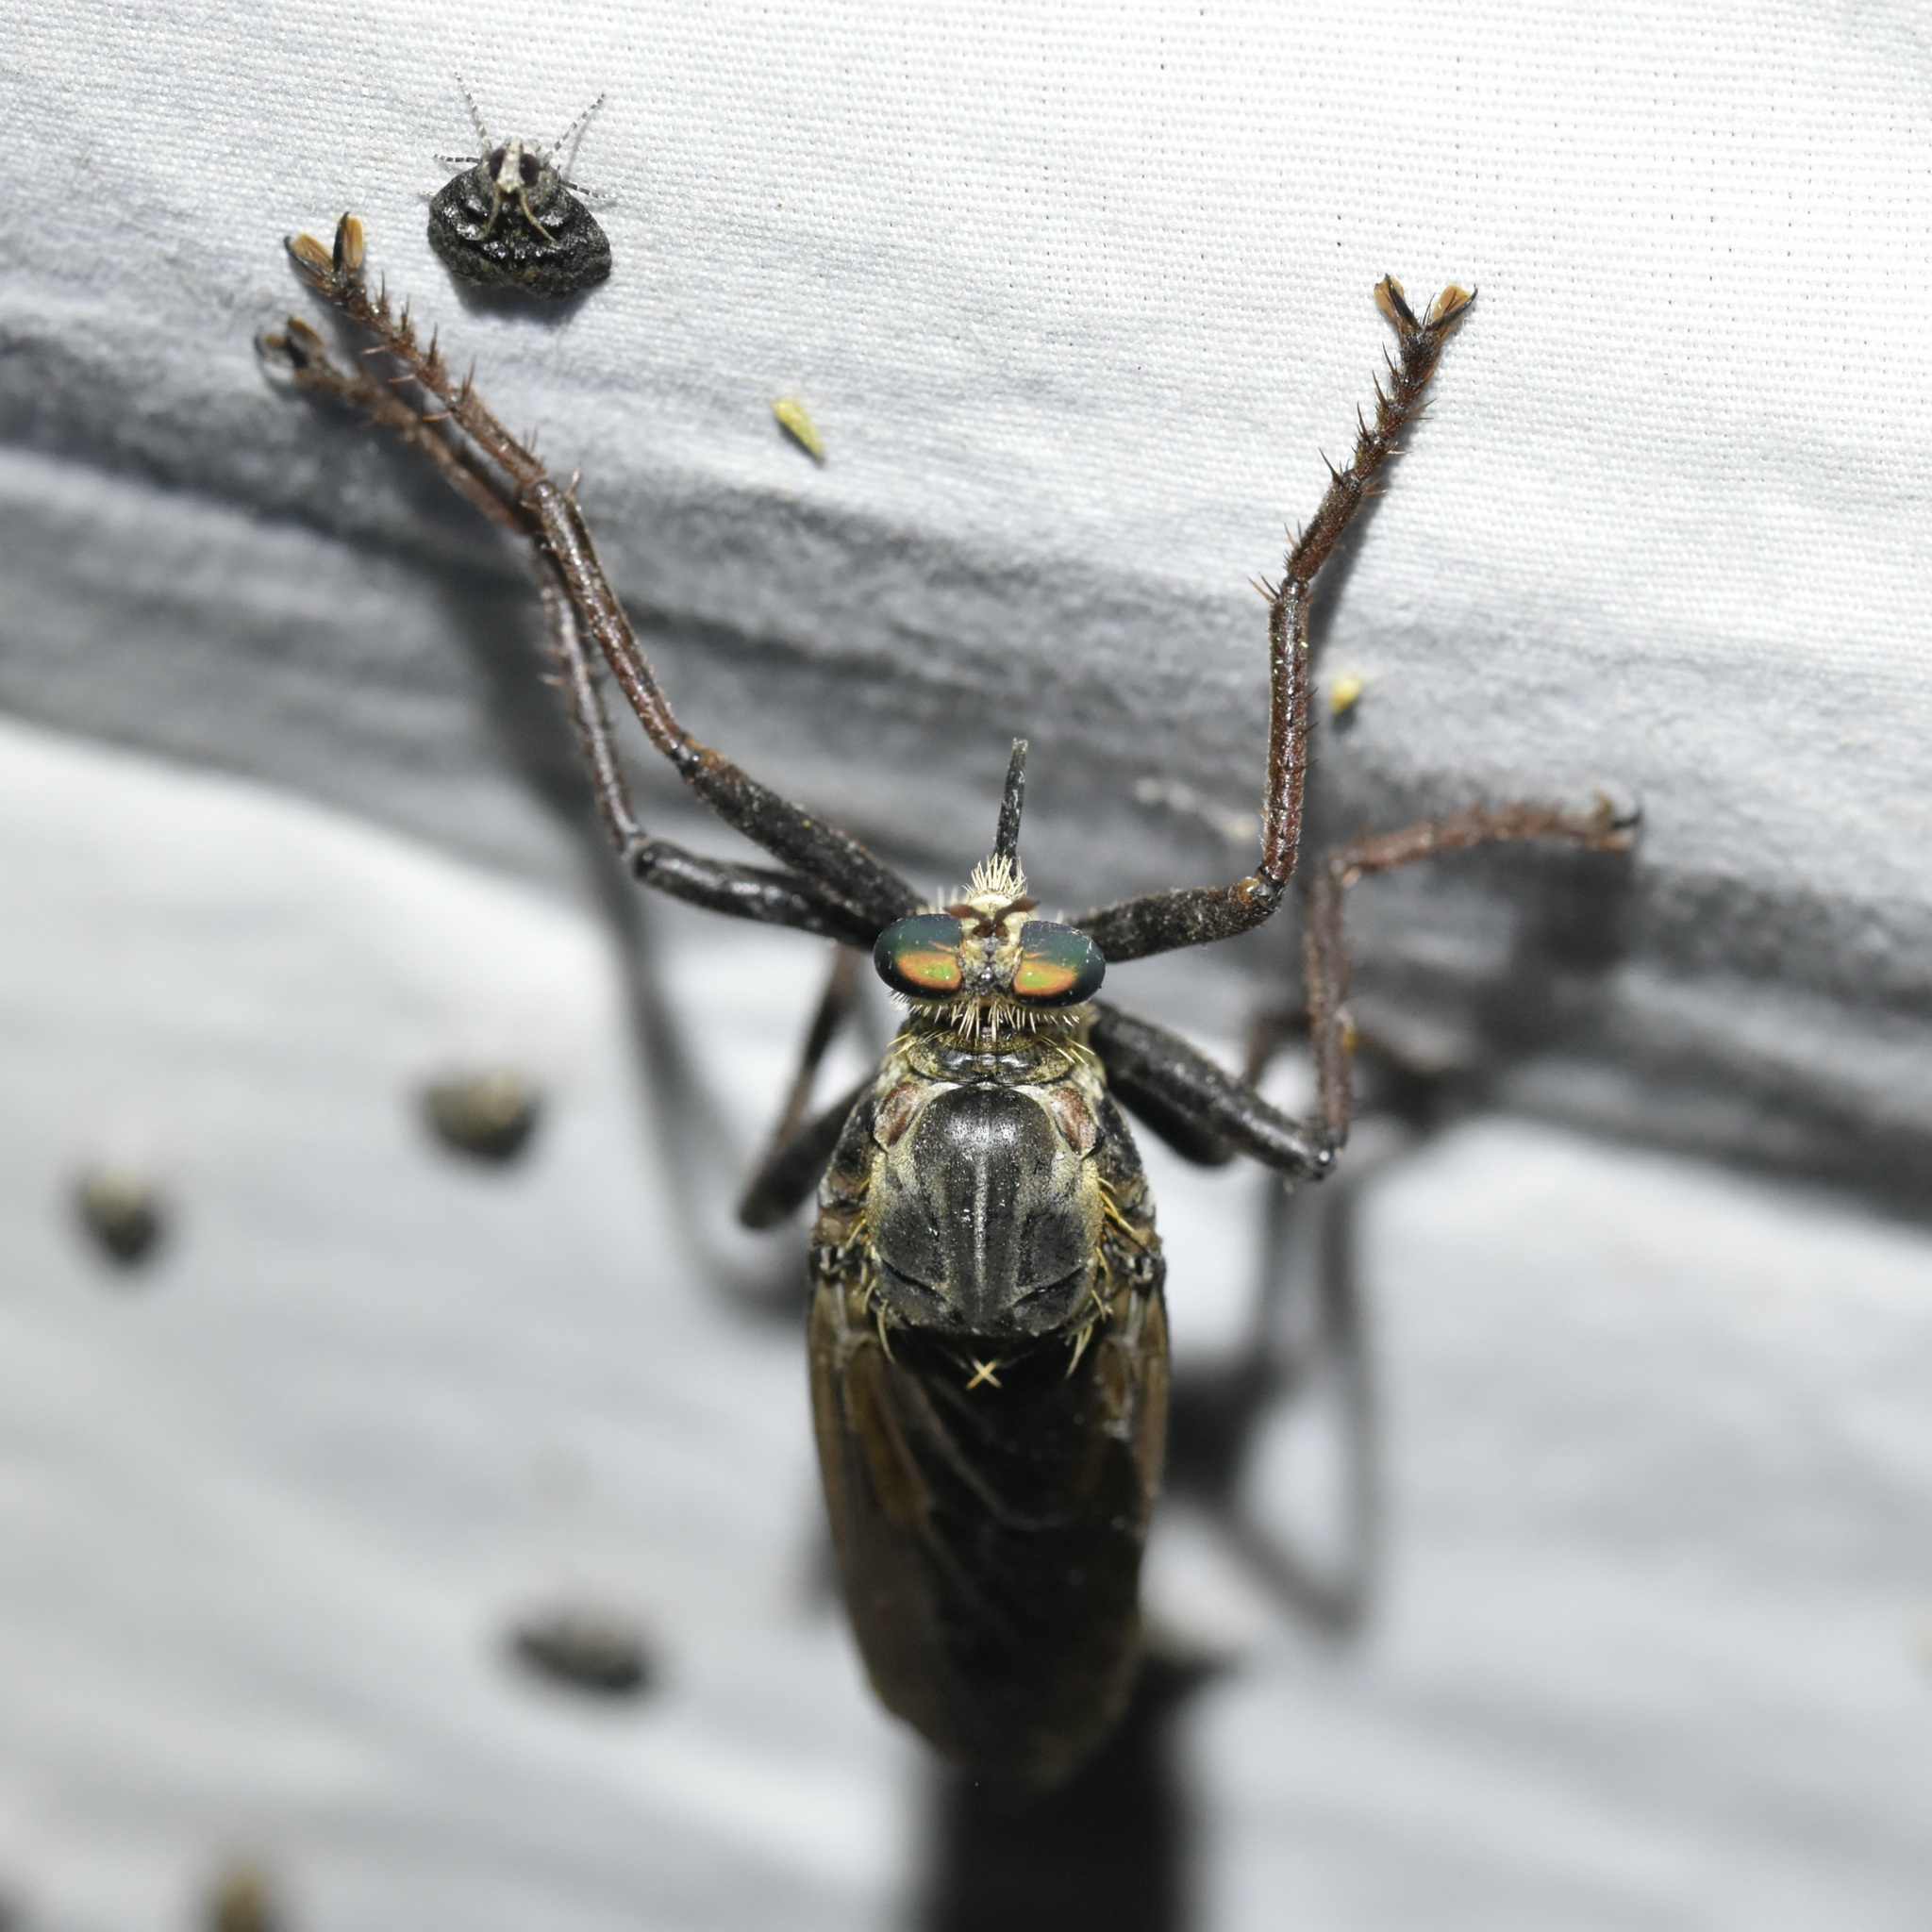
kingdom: Animalia
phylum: Arthropoda
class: Insecta
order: Diptera
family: Asilidae
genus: Microstylum
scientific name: Microstylum morosum
